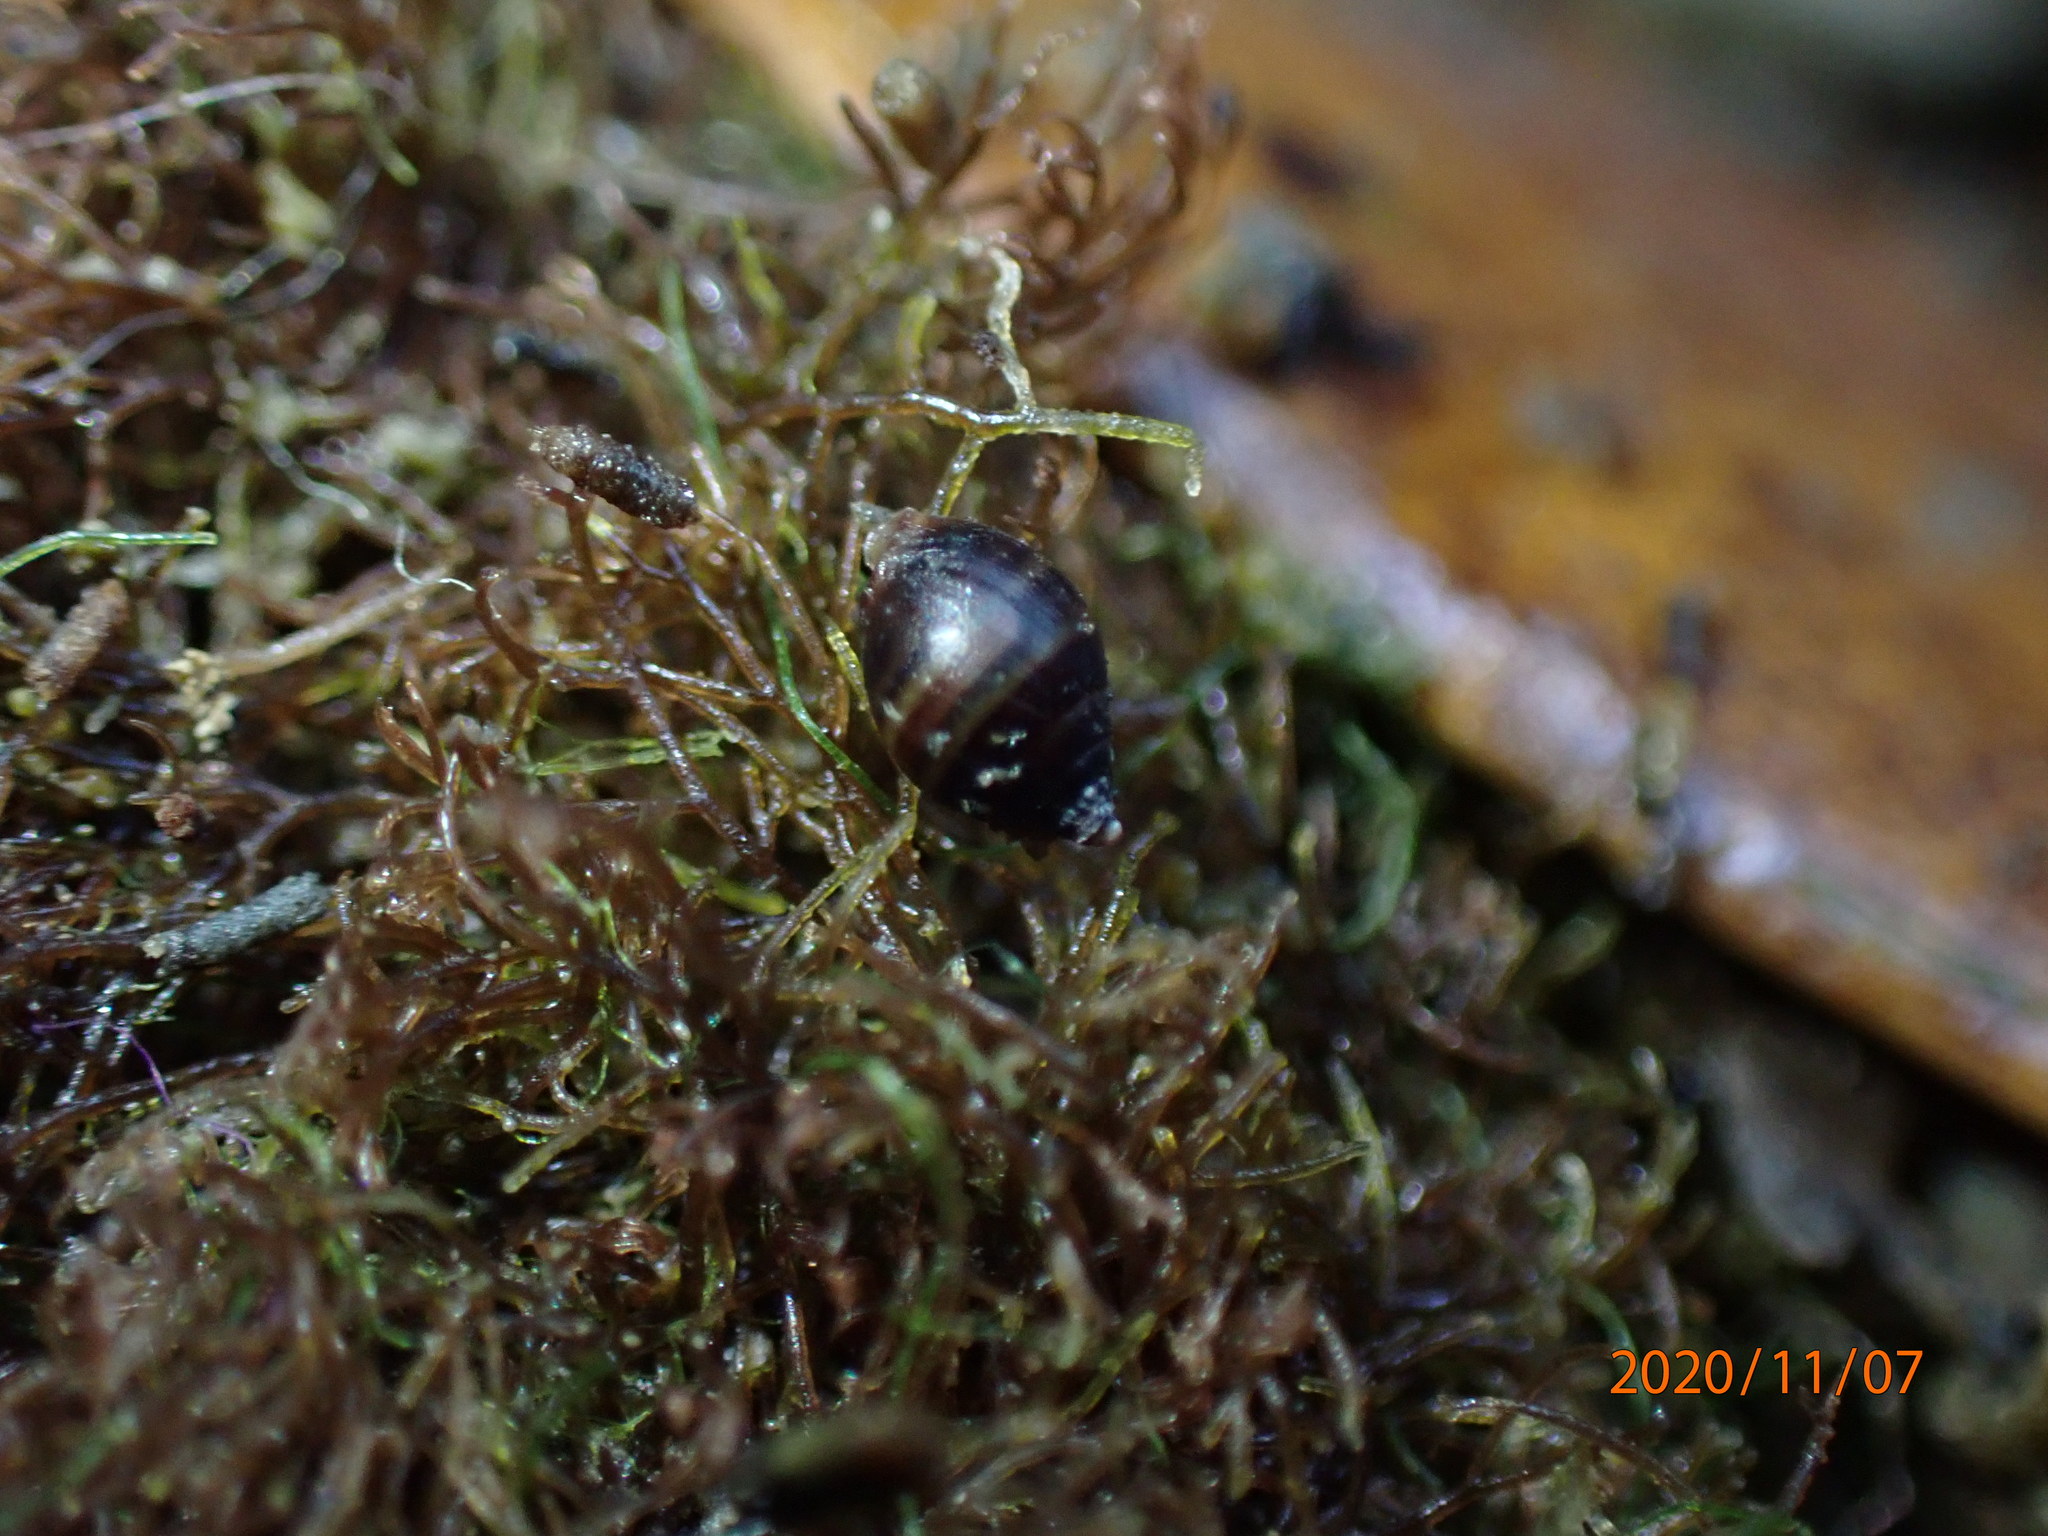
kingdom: Animalia
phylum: Mollusca
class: Gastropoda
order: Ellobiida
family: Ellobiidae
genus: Pleuroloba
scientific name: Pleuroloba costellaris
